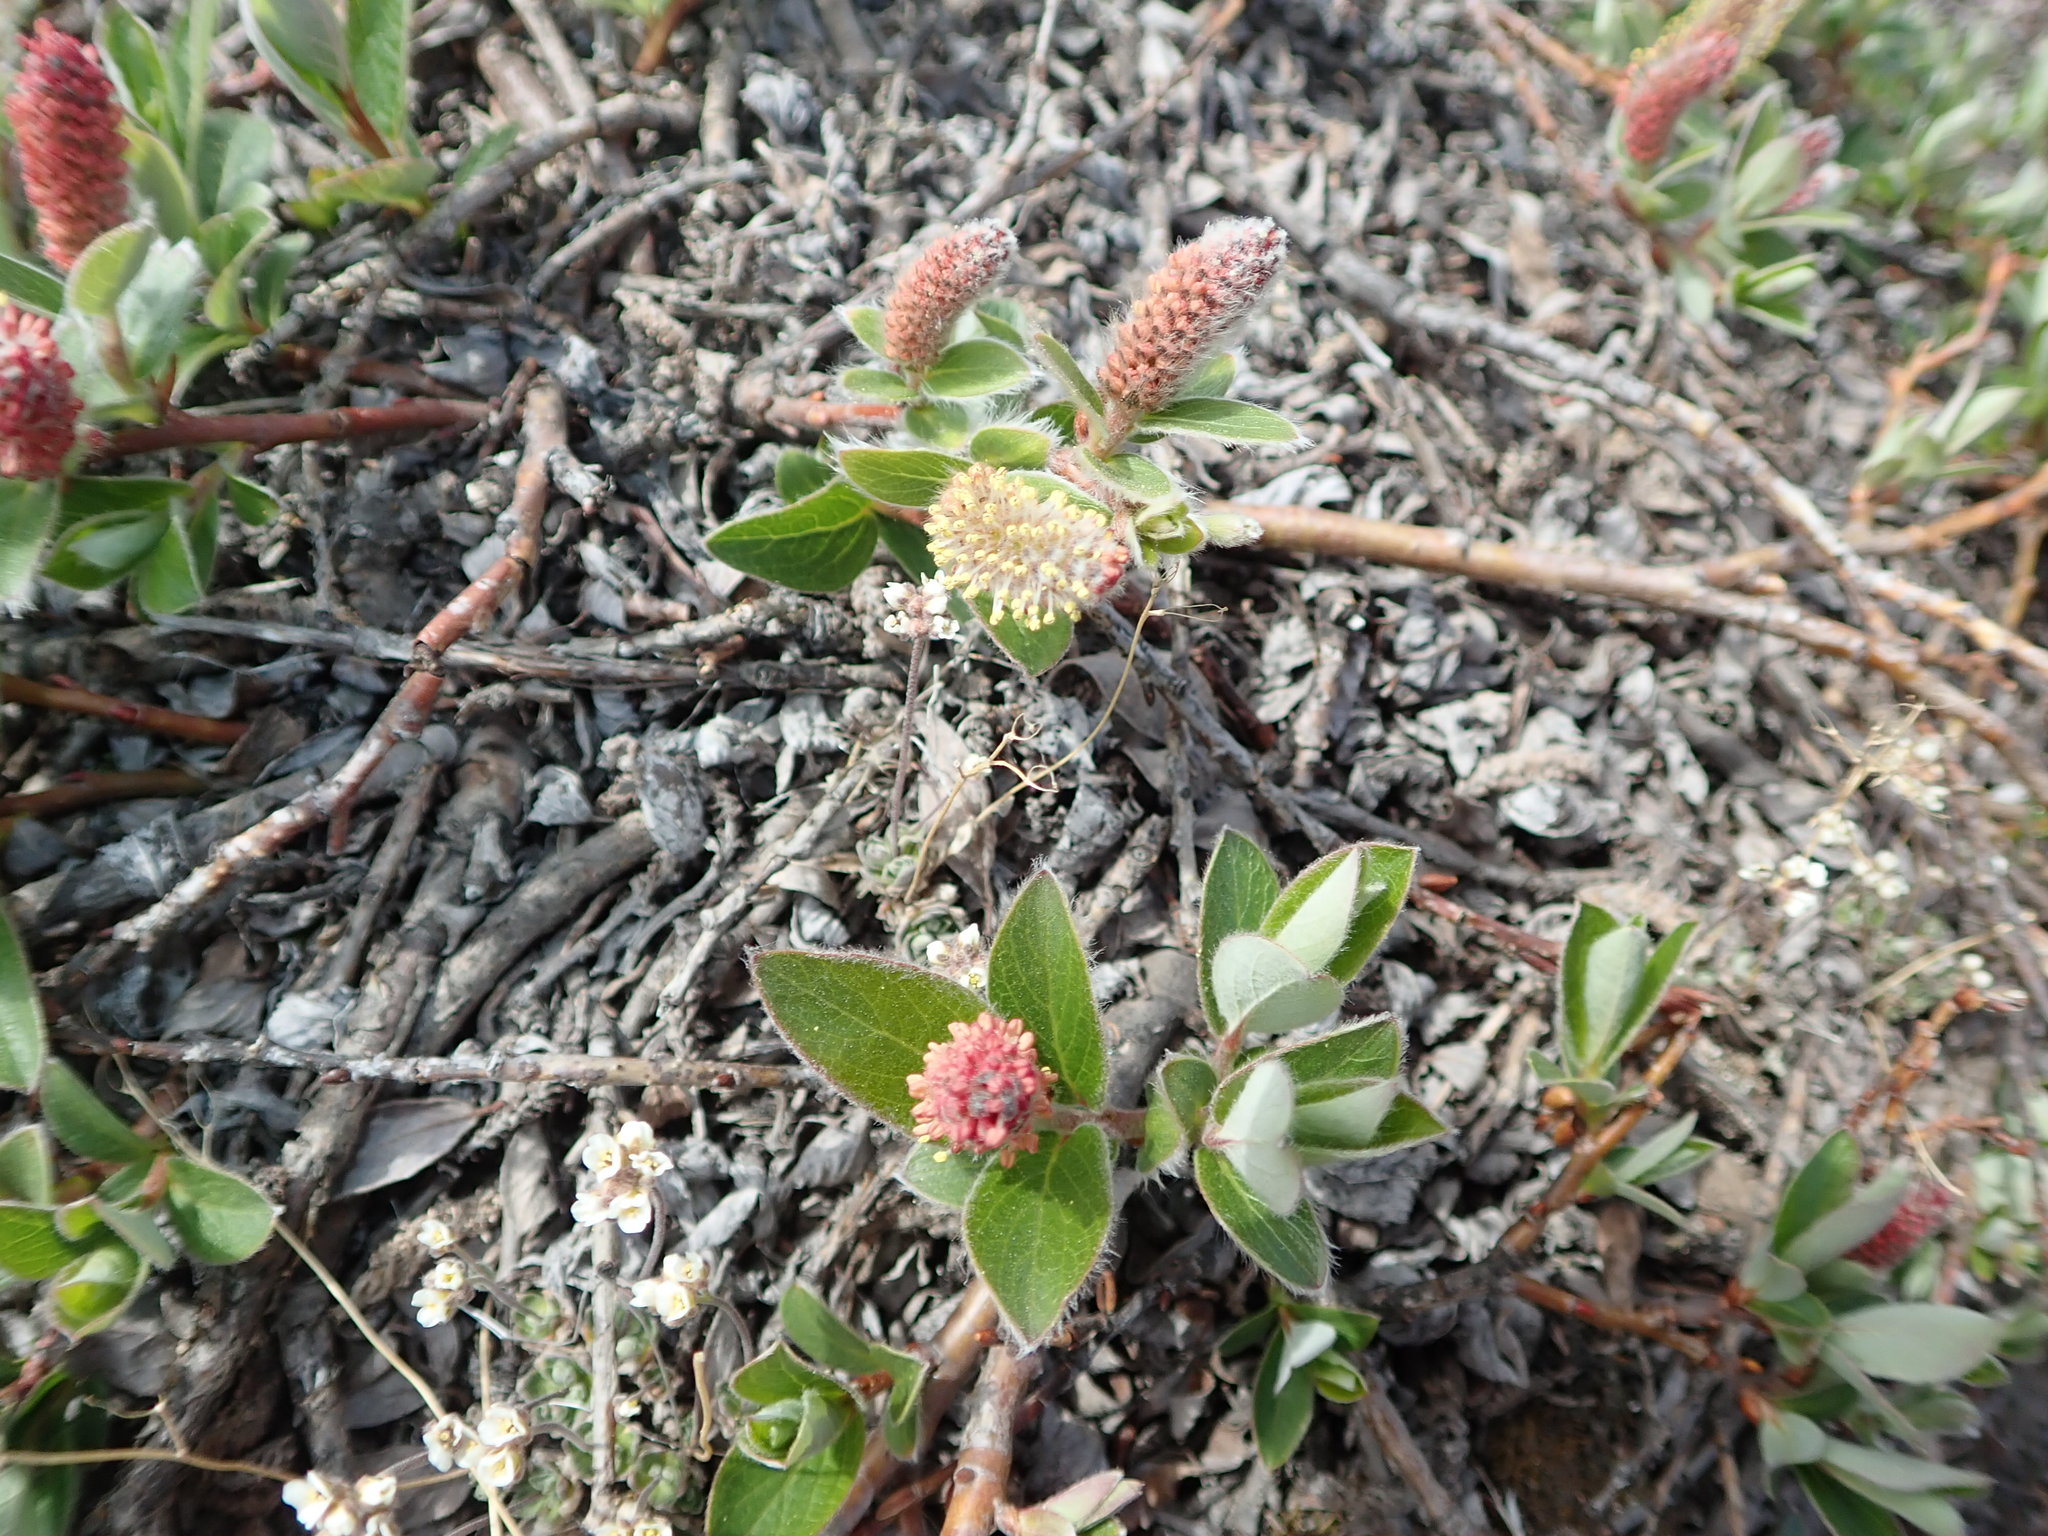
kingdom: Plantae
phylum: Tracheophyta
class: Magnoliopsida
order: Malpighiales
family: Salicaceae
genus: Salix
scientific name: Salix arctica
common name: Arctic willow
